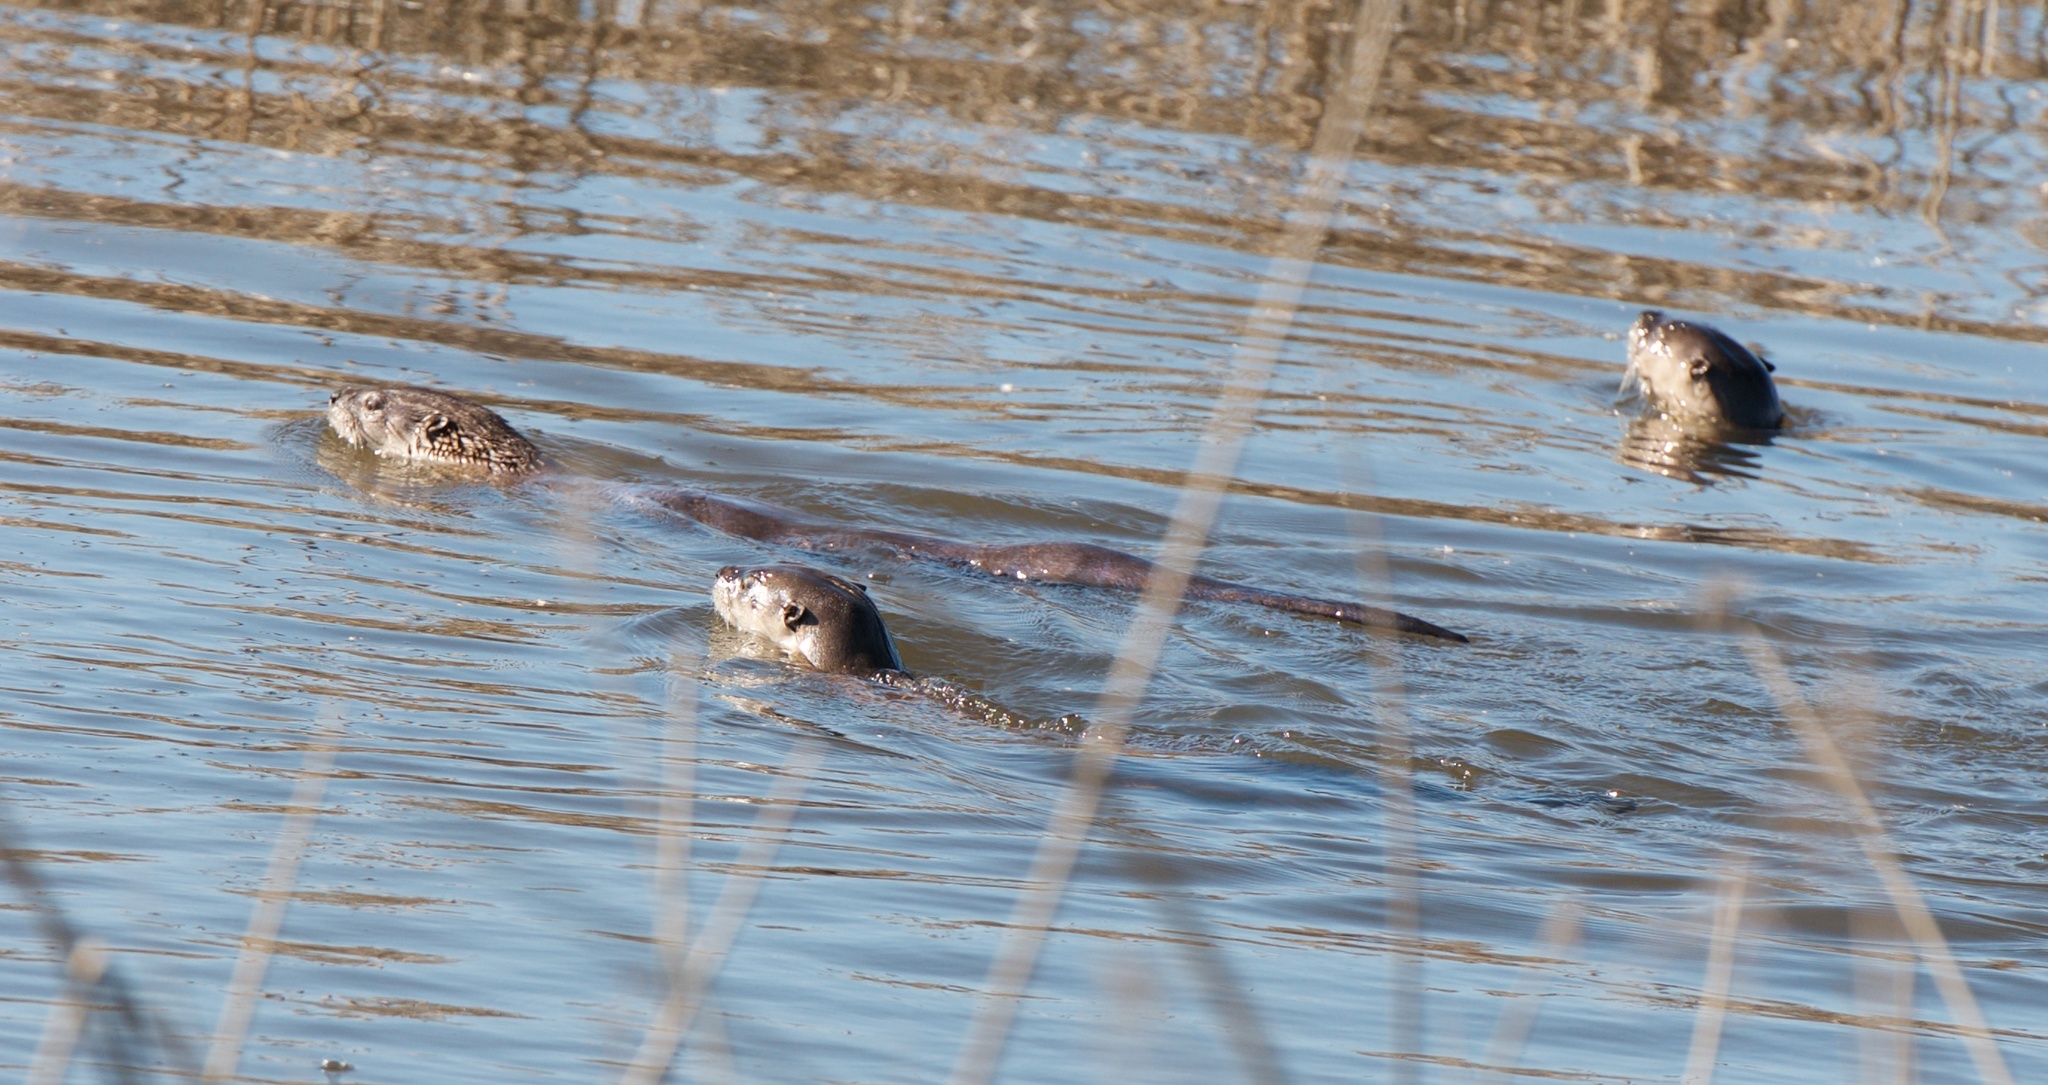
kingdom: Animalia
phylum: Chordata
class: Mammalia
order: Carnivora
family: Mustelidae
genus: Lontra
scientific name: Lontra canadensis
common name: North american river otter
